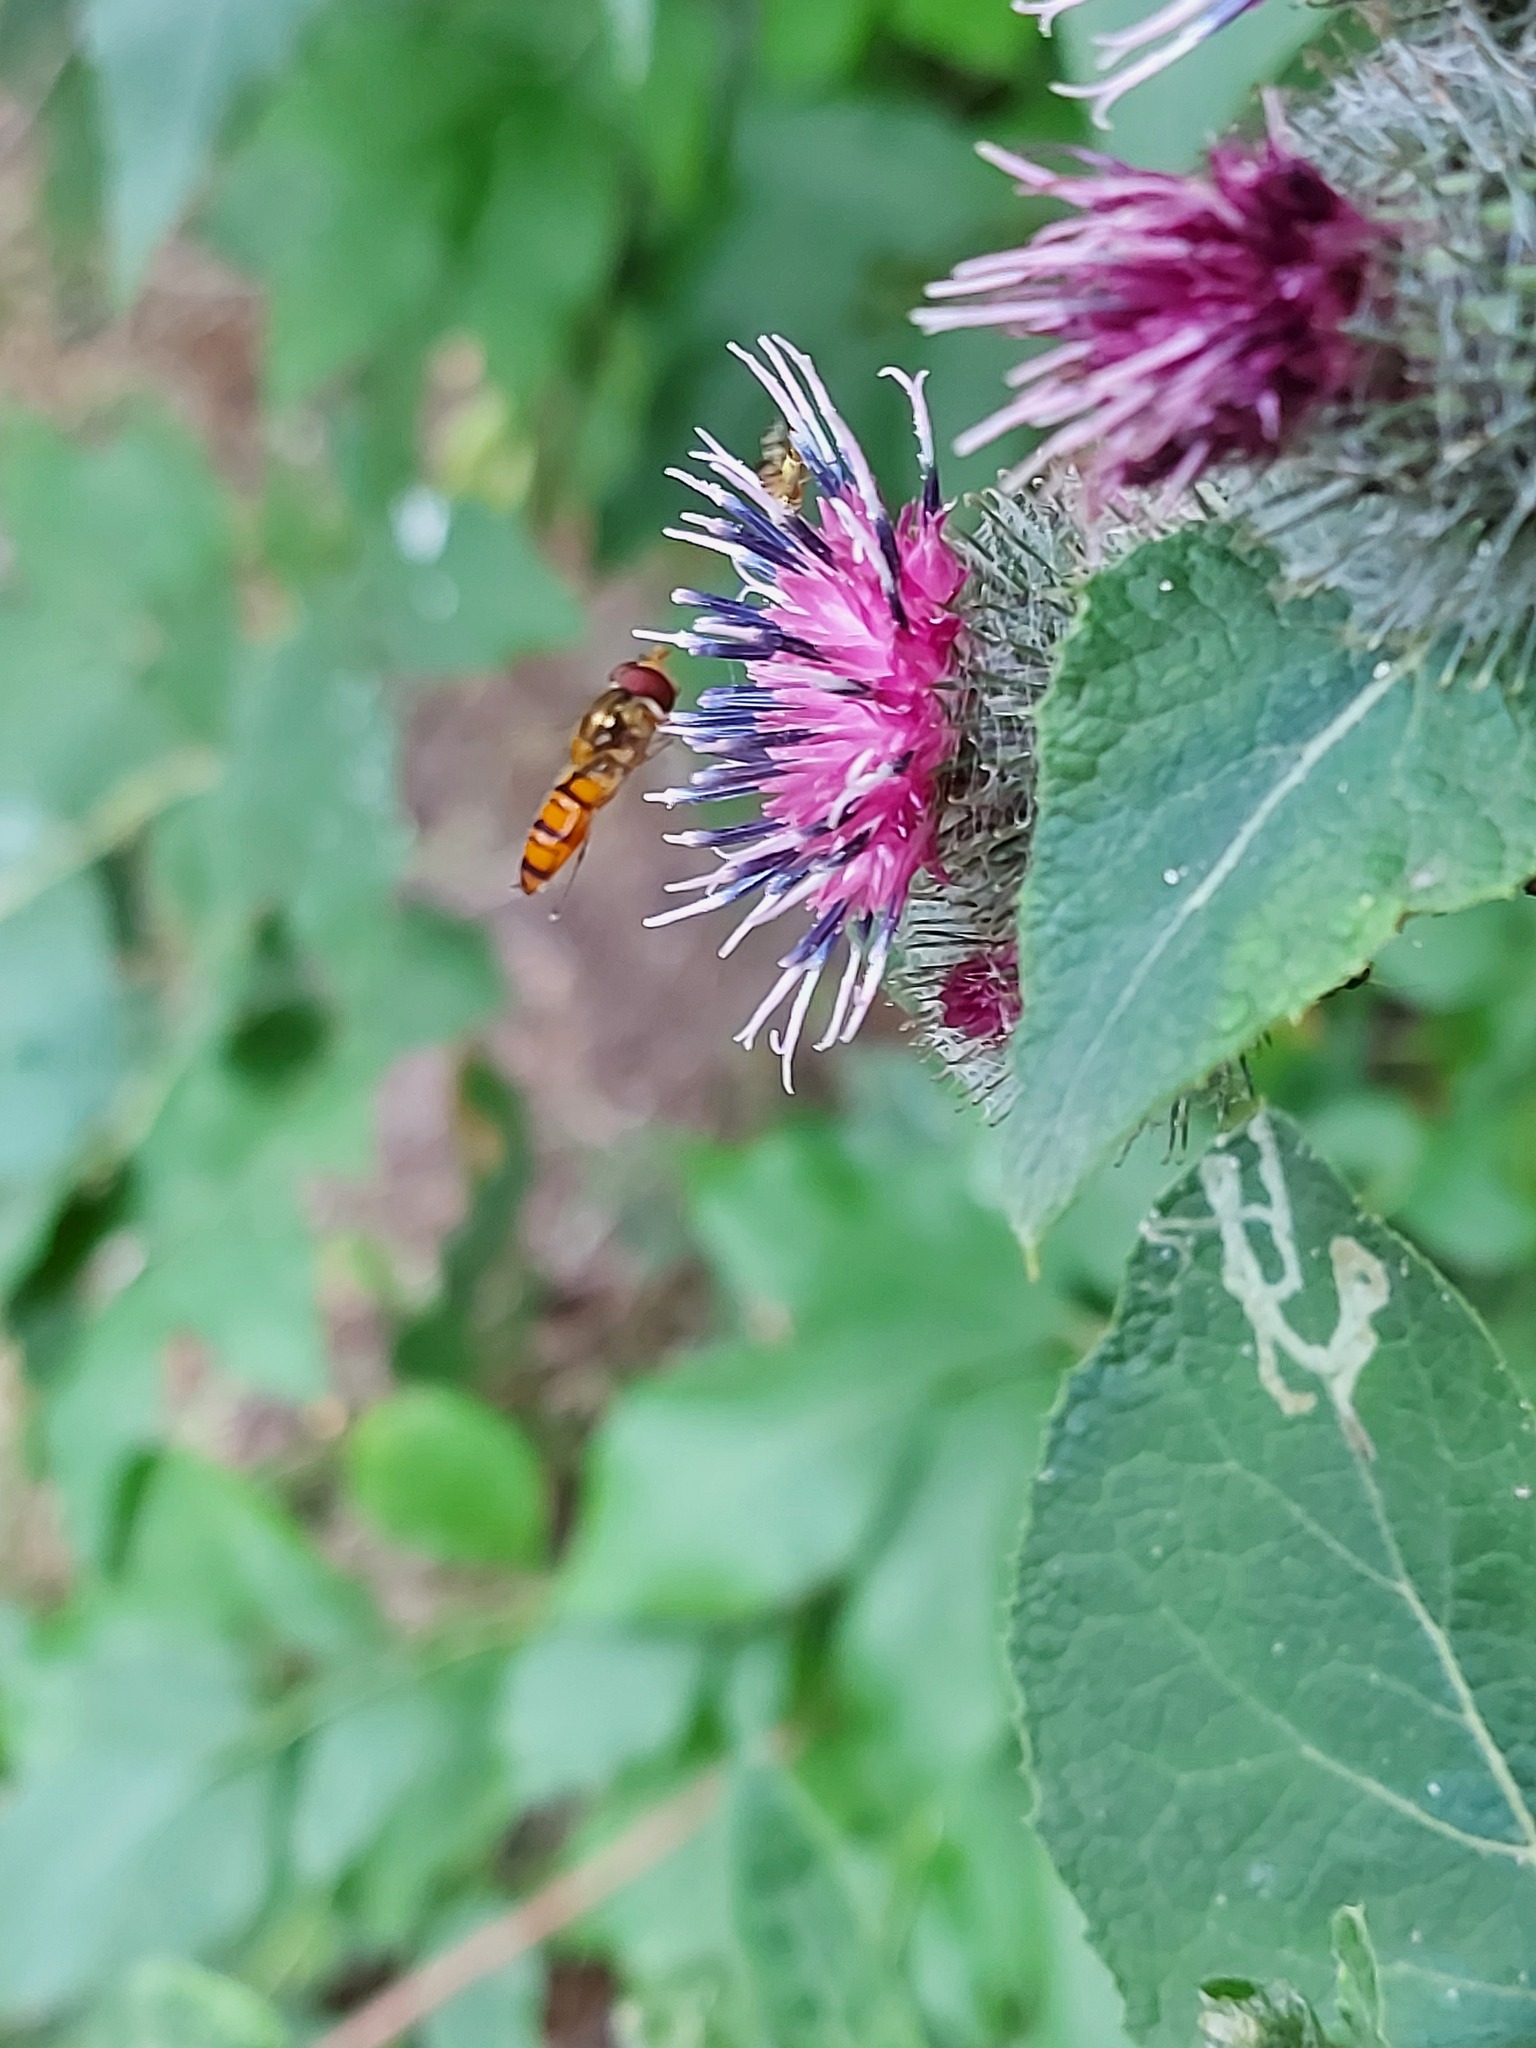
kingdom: Animalia
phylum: Arthropoda
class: Insecta
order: Diptera
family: Syrphidae
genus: Episyrphus
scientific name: Episyrphus balteatus
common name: Marmalade hoverfly
